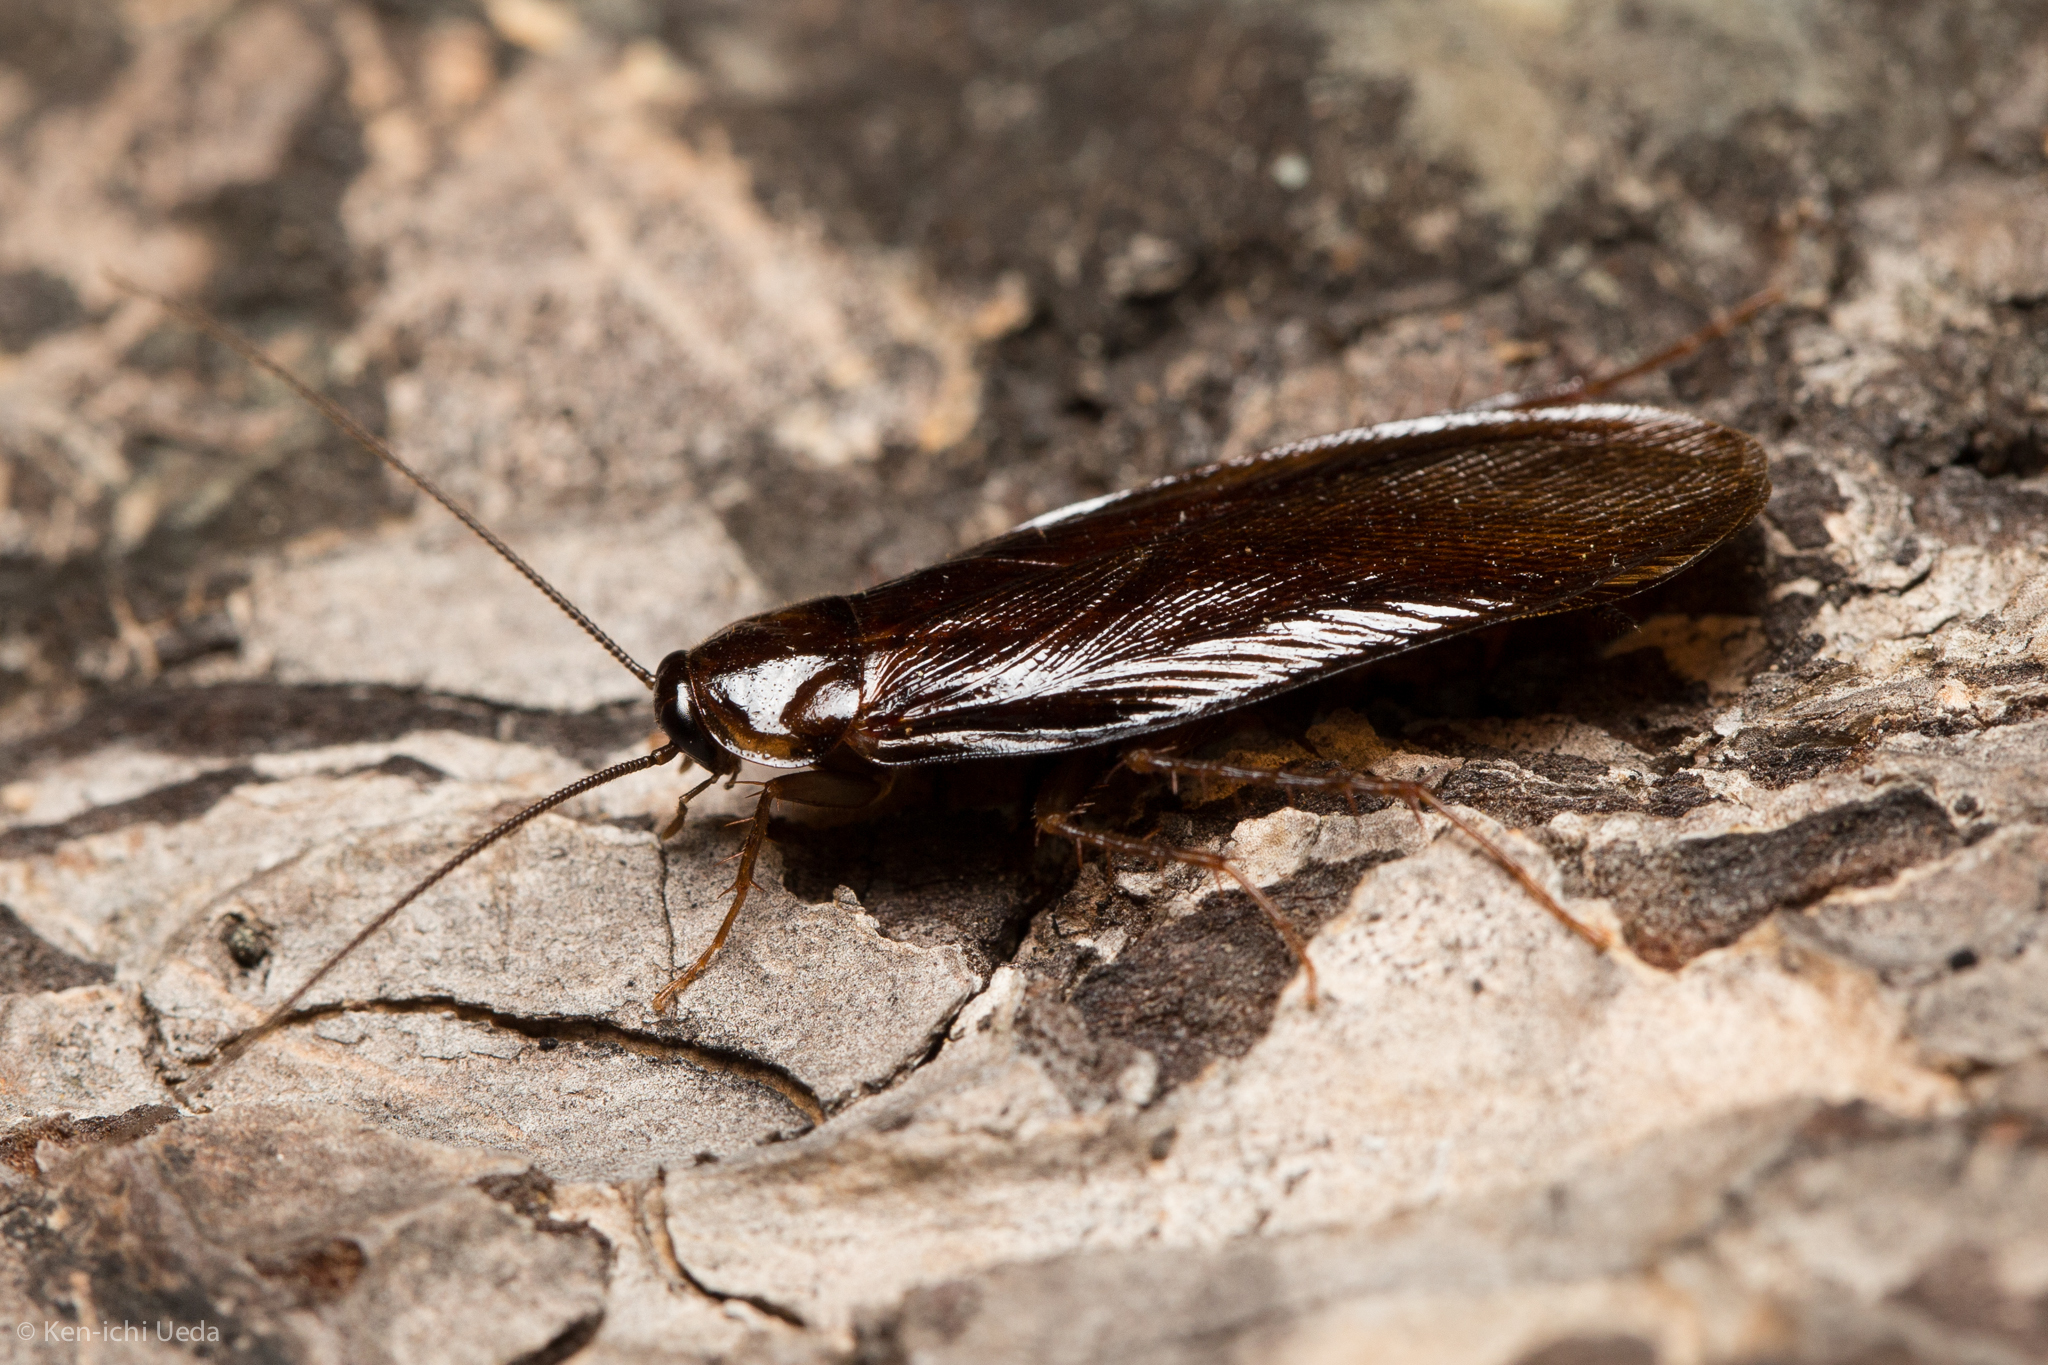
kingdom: Animalia
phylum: Arthropoda
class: Insecta
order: Blattodea
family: Ectobiidae
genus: Parcoblatta
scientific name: Parcoblatta americana
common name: Western wood cockroach
